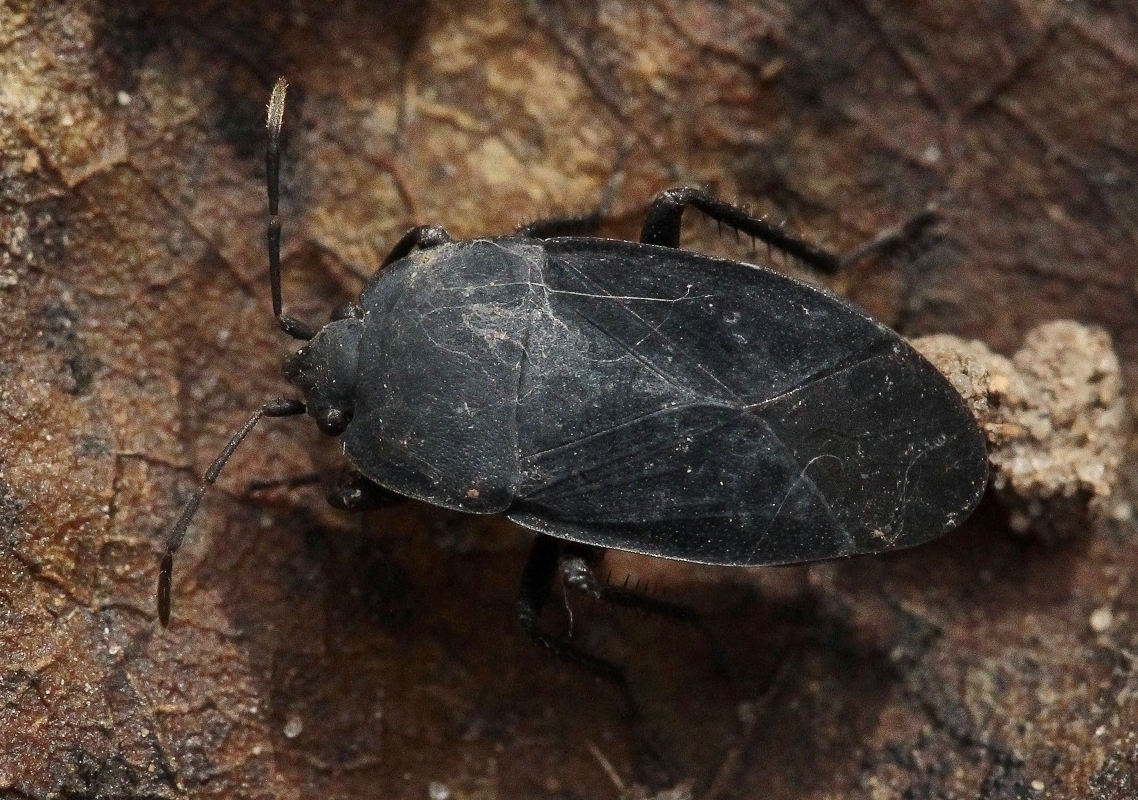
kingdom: Animalia
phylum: Arthropoda
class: Insecta
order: Hemiptera
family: Rhyparochromidae
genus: Aellopus
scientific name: Aellopus atratus
